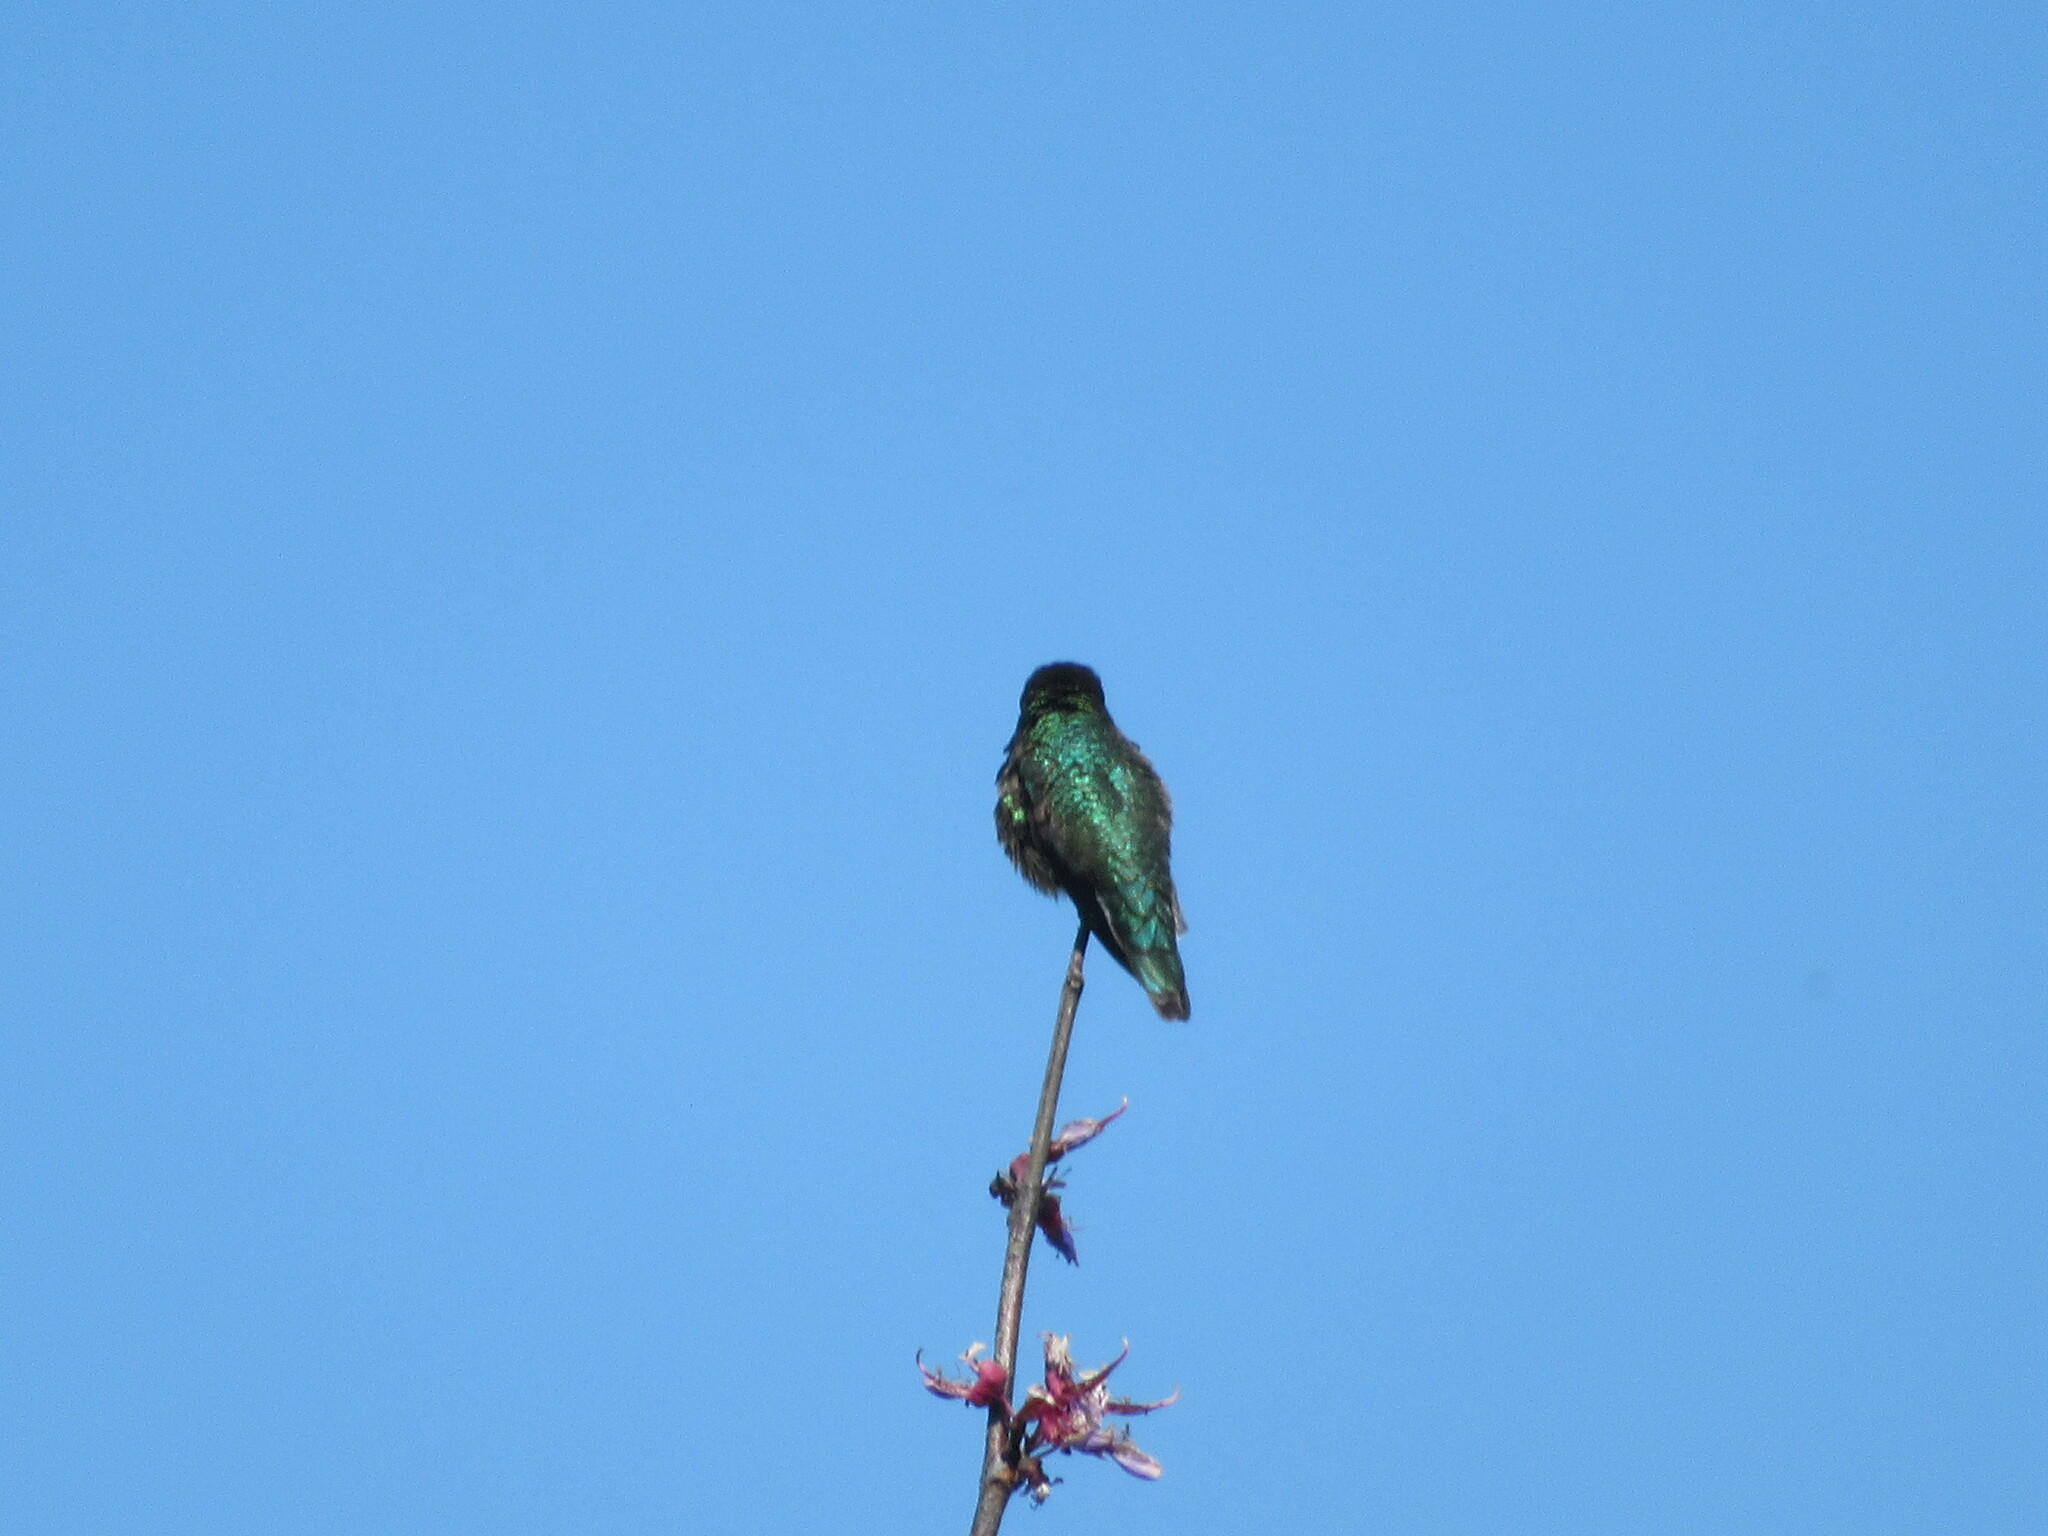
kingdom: Animalia
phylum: Chordata
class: Aves
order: Apodiformes
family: Trochilidae
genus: Calypte
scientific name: Calypte anna
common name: Anna's hummingbird
